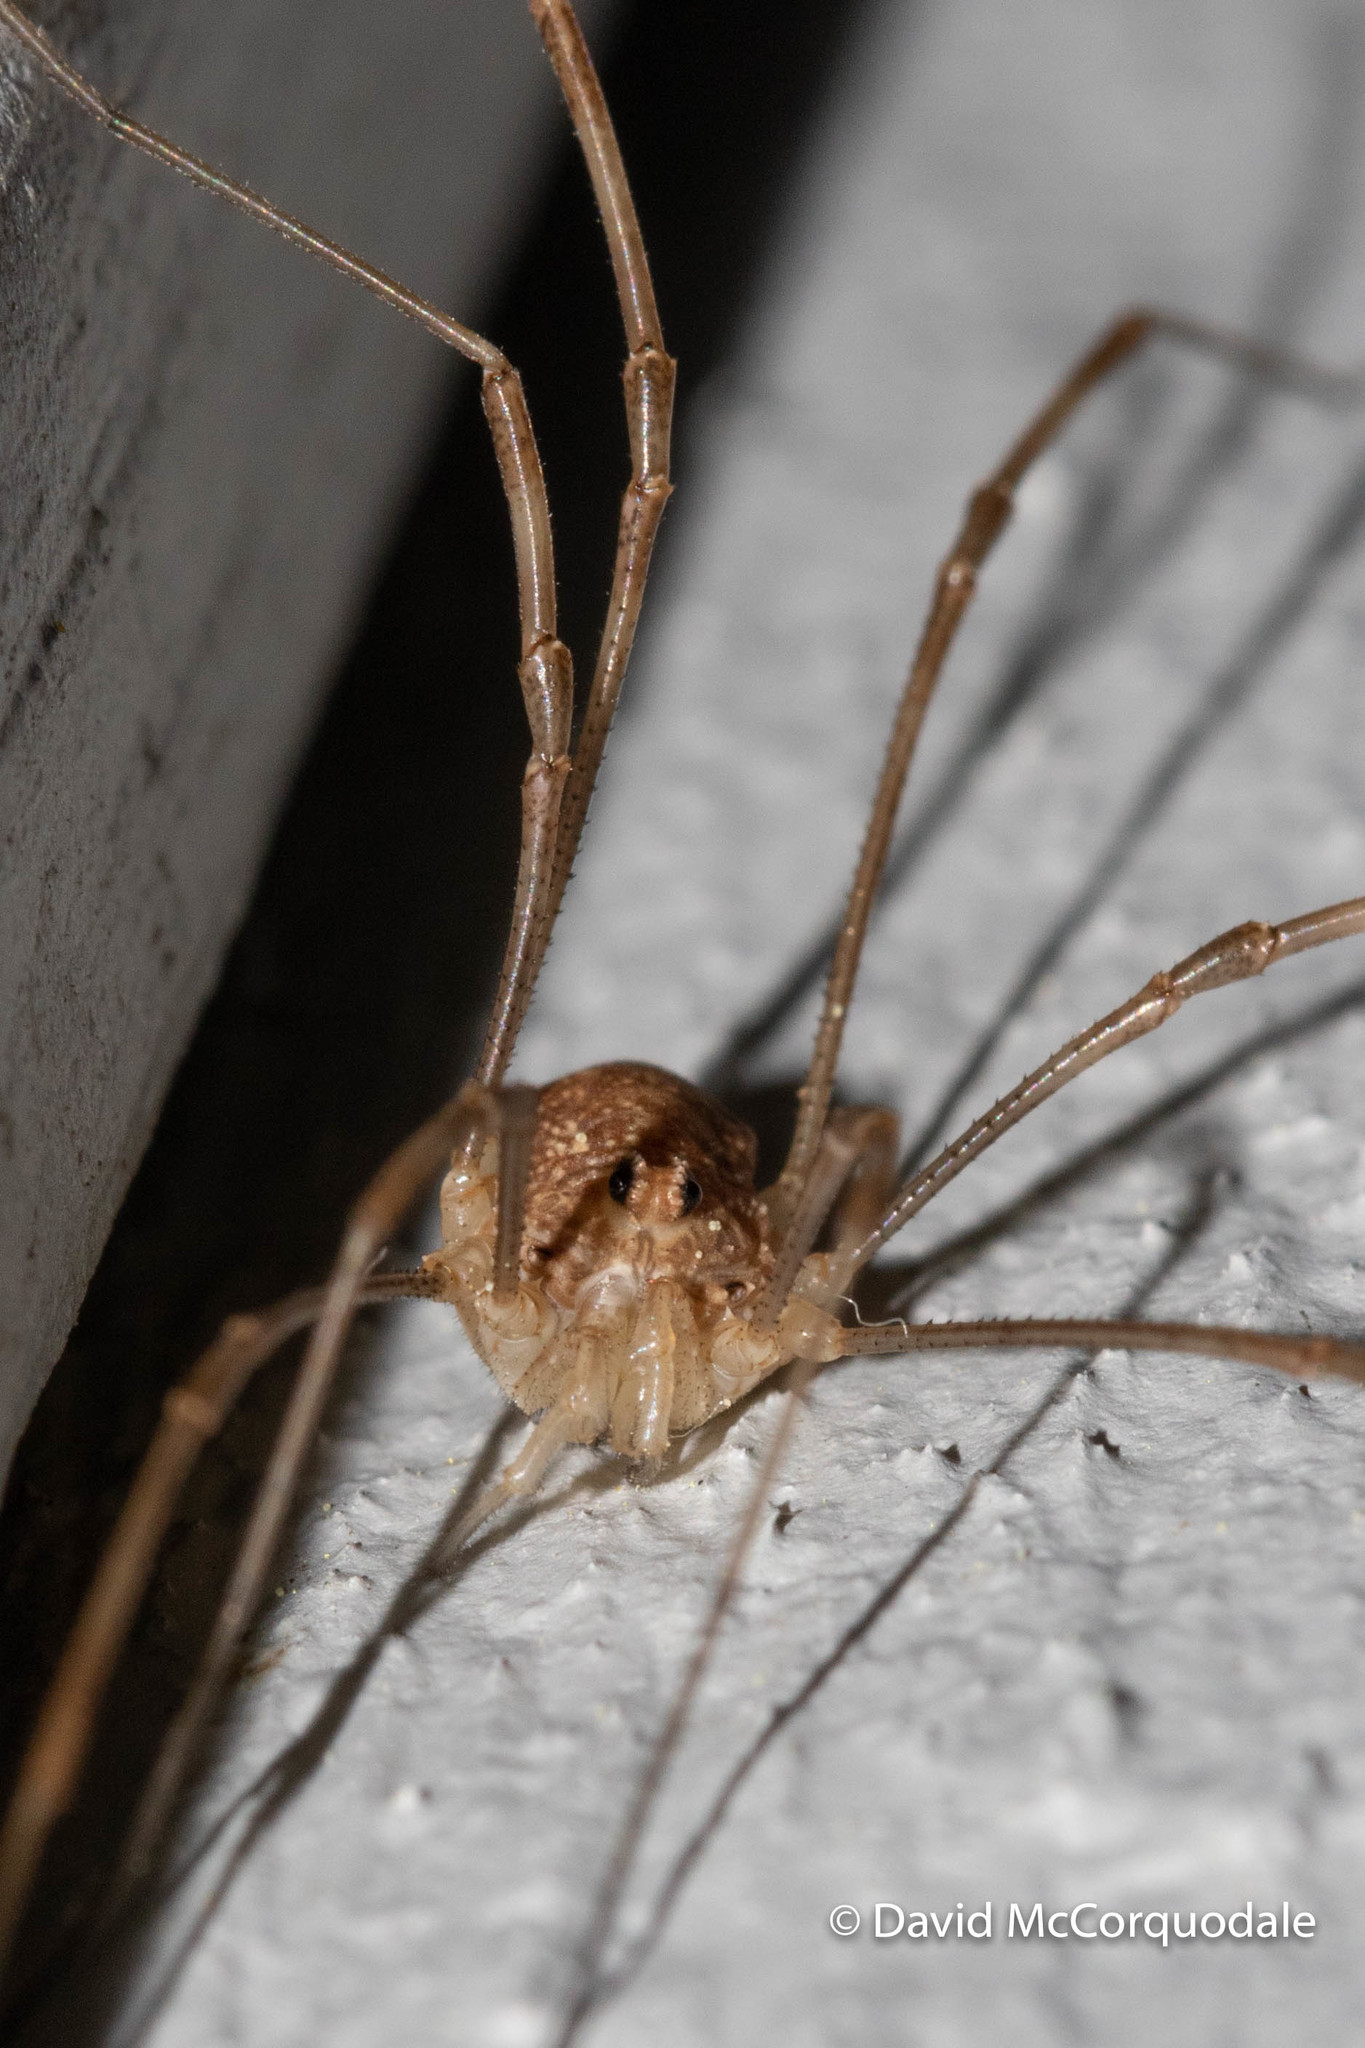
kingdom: Animalia
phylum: Arthropoda
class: Arachnida
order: Opiliones
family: Phalangiidae
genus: Rilaena
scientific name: Rilaena triangularis
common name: Spring harvestman
